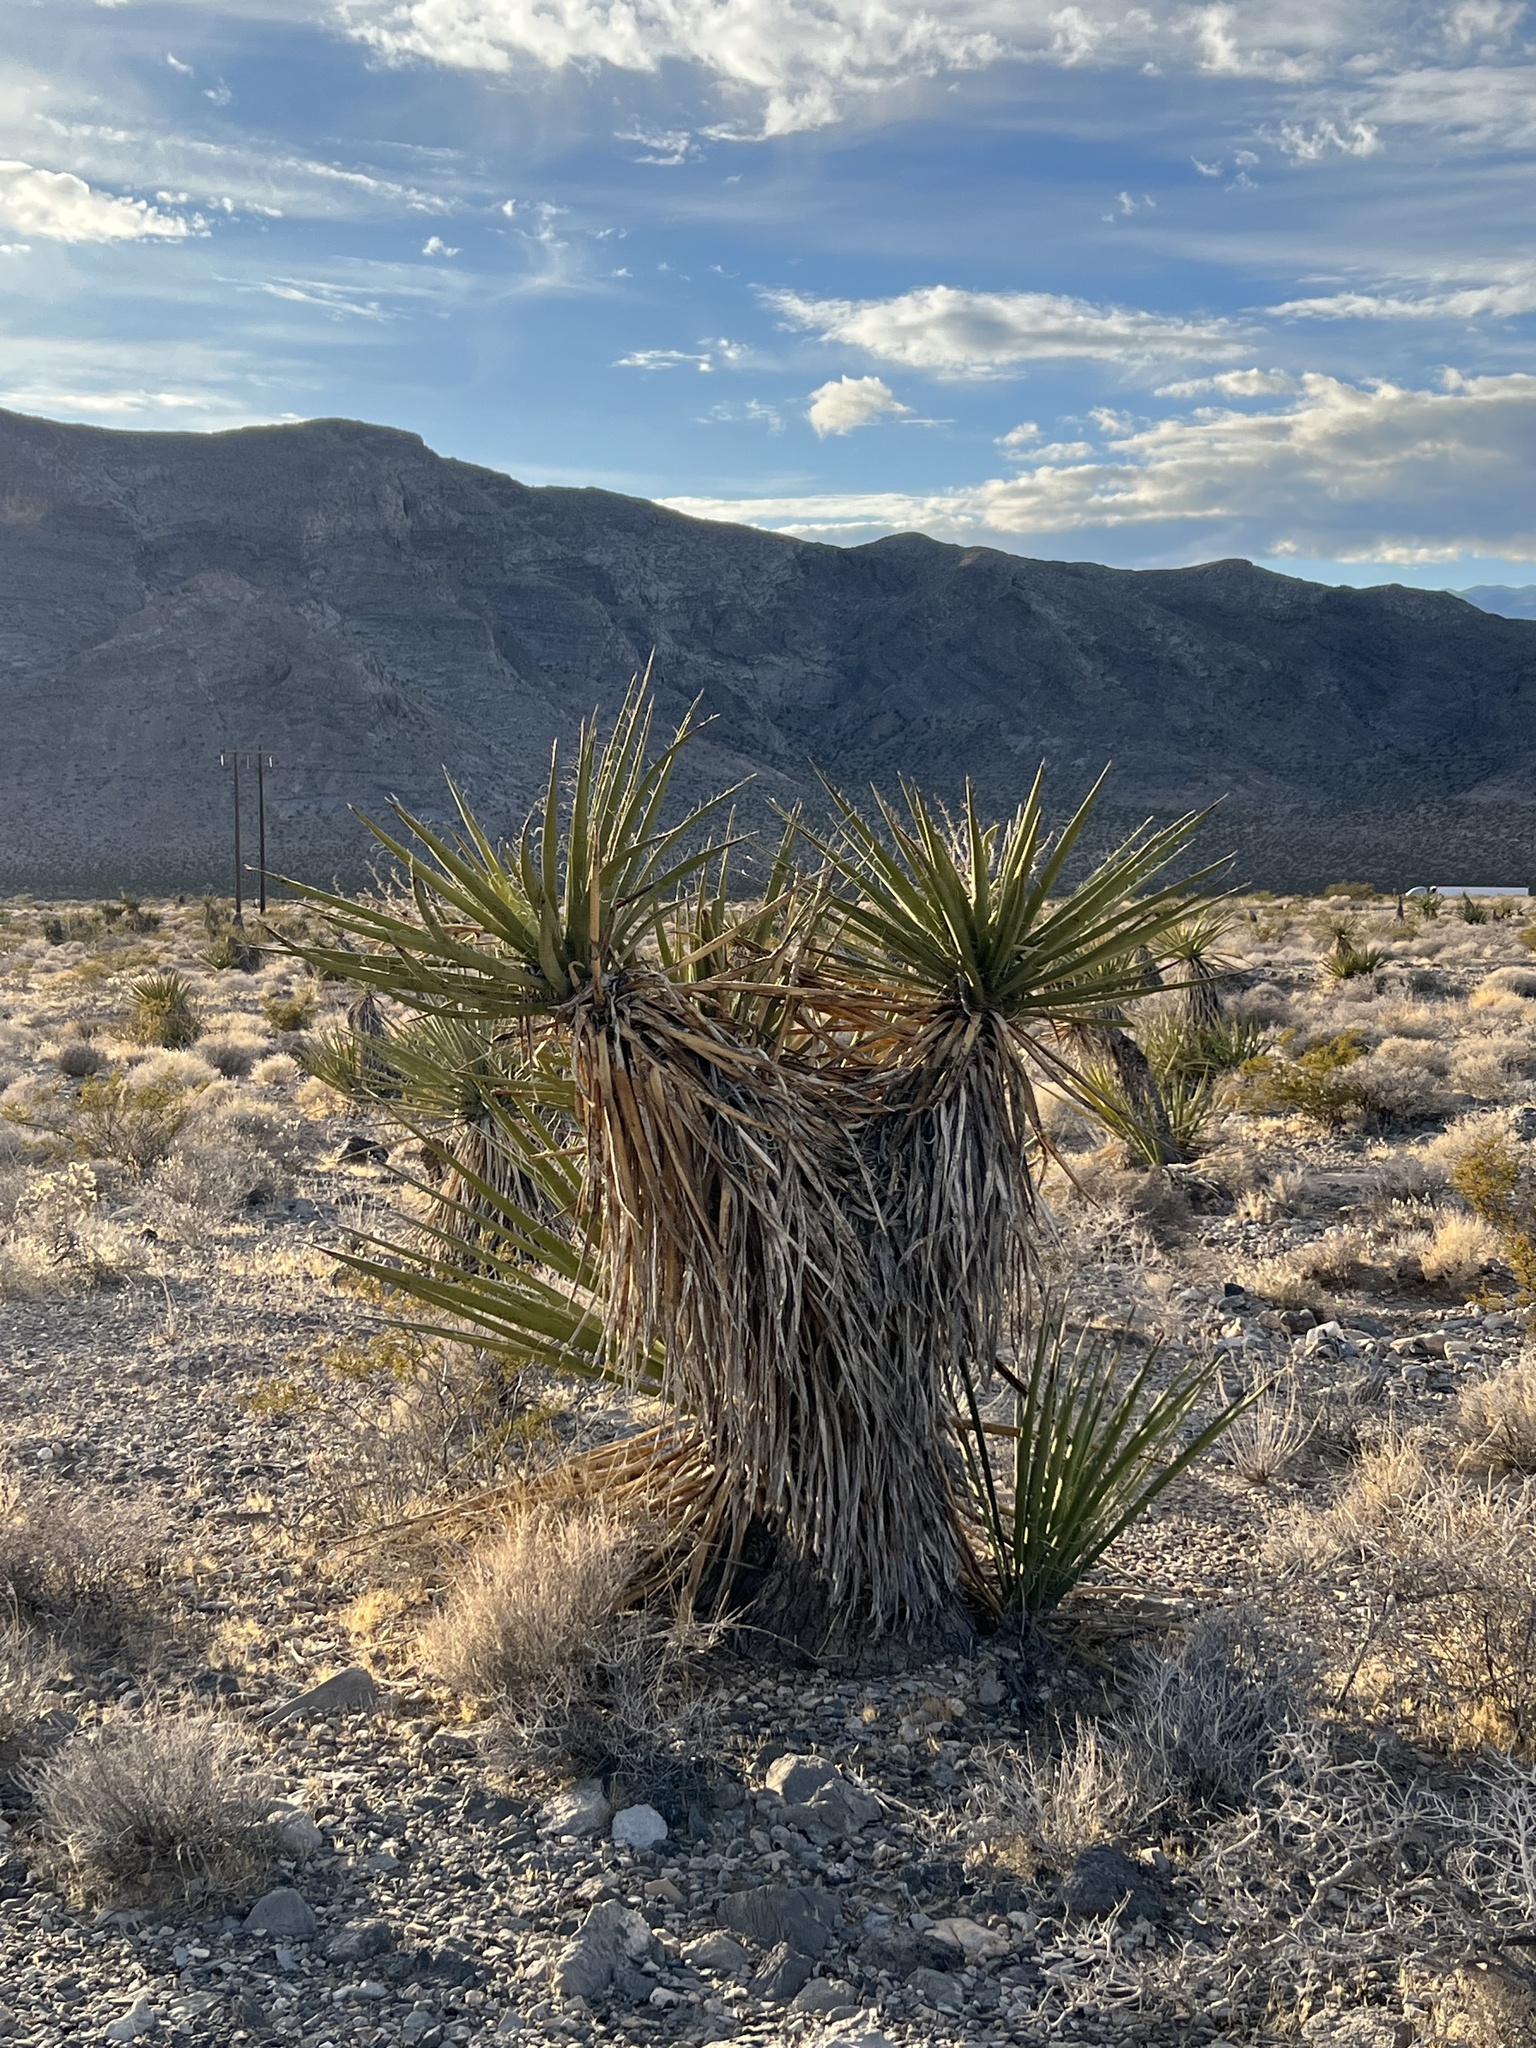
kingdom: Plantae
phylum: Tracheophyta
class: Liliopsida
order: Asparagales
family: Asparagaceae
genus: Yucca
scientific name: Yucca schidigera
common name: Mojave yucca
